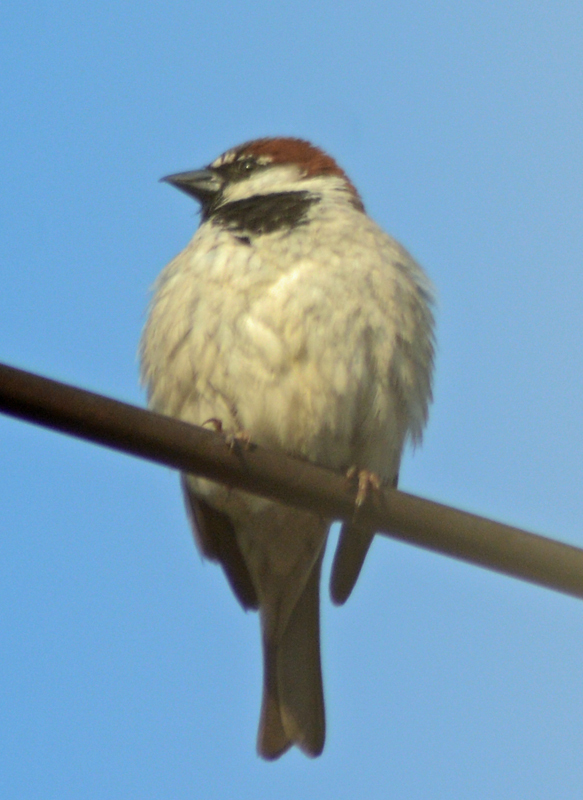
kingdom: Animalia
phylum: Chordata
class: Aves
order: Passeriformes
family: Passeridae
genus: Passer
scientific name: Passer domesticus
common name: House sparrow
